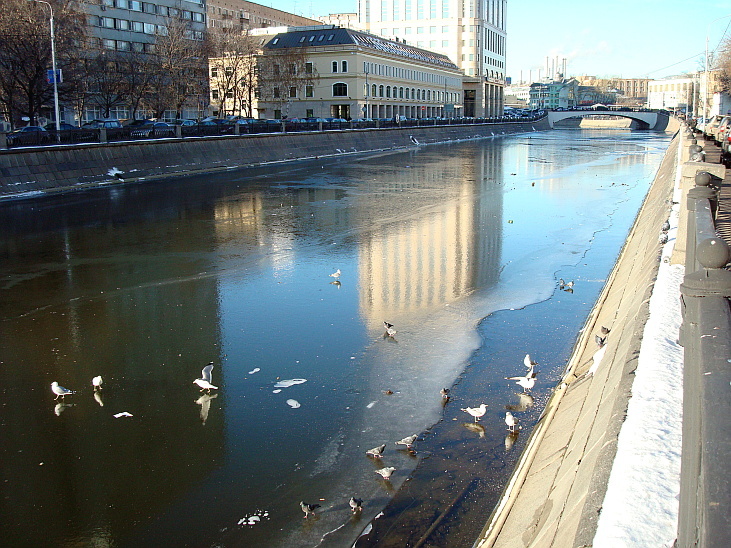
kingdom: Animalia
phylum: Chordata
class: Aves
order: Charadriiformes
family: Laridae
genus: Larus
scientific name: Larus canus
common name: Mew gull
